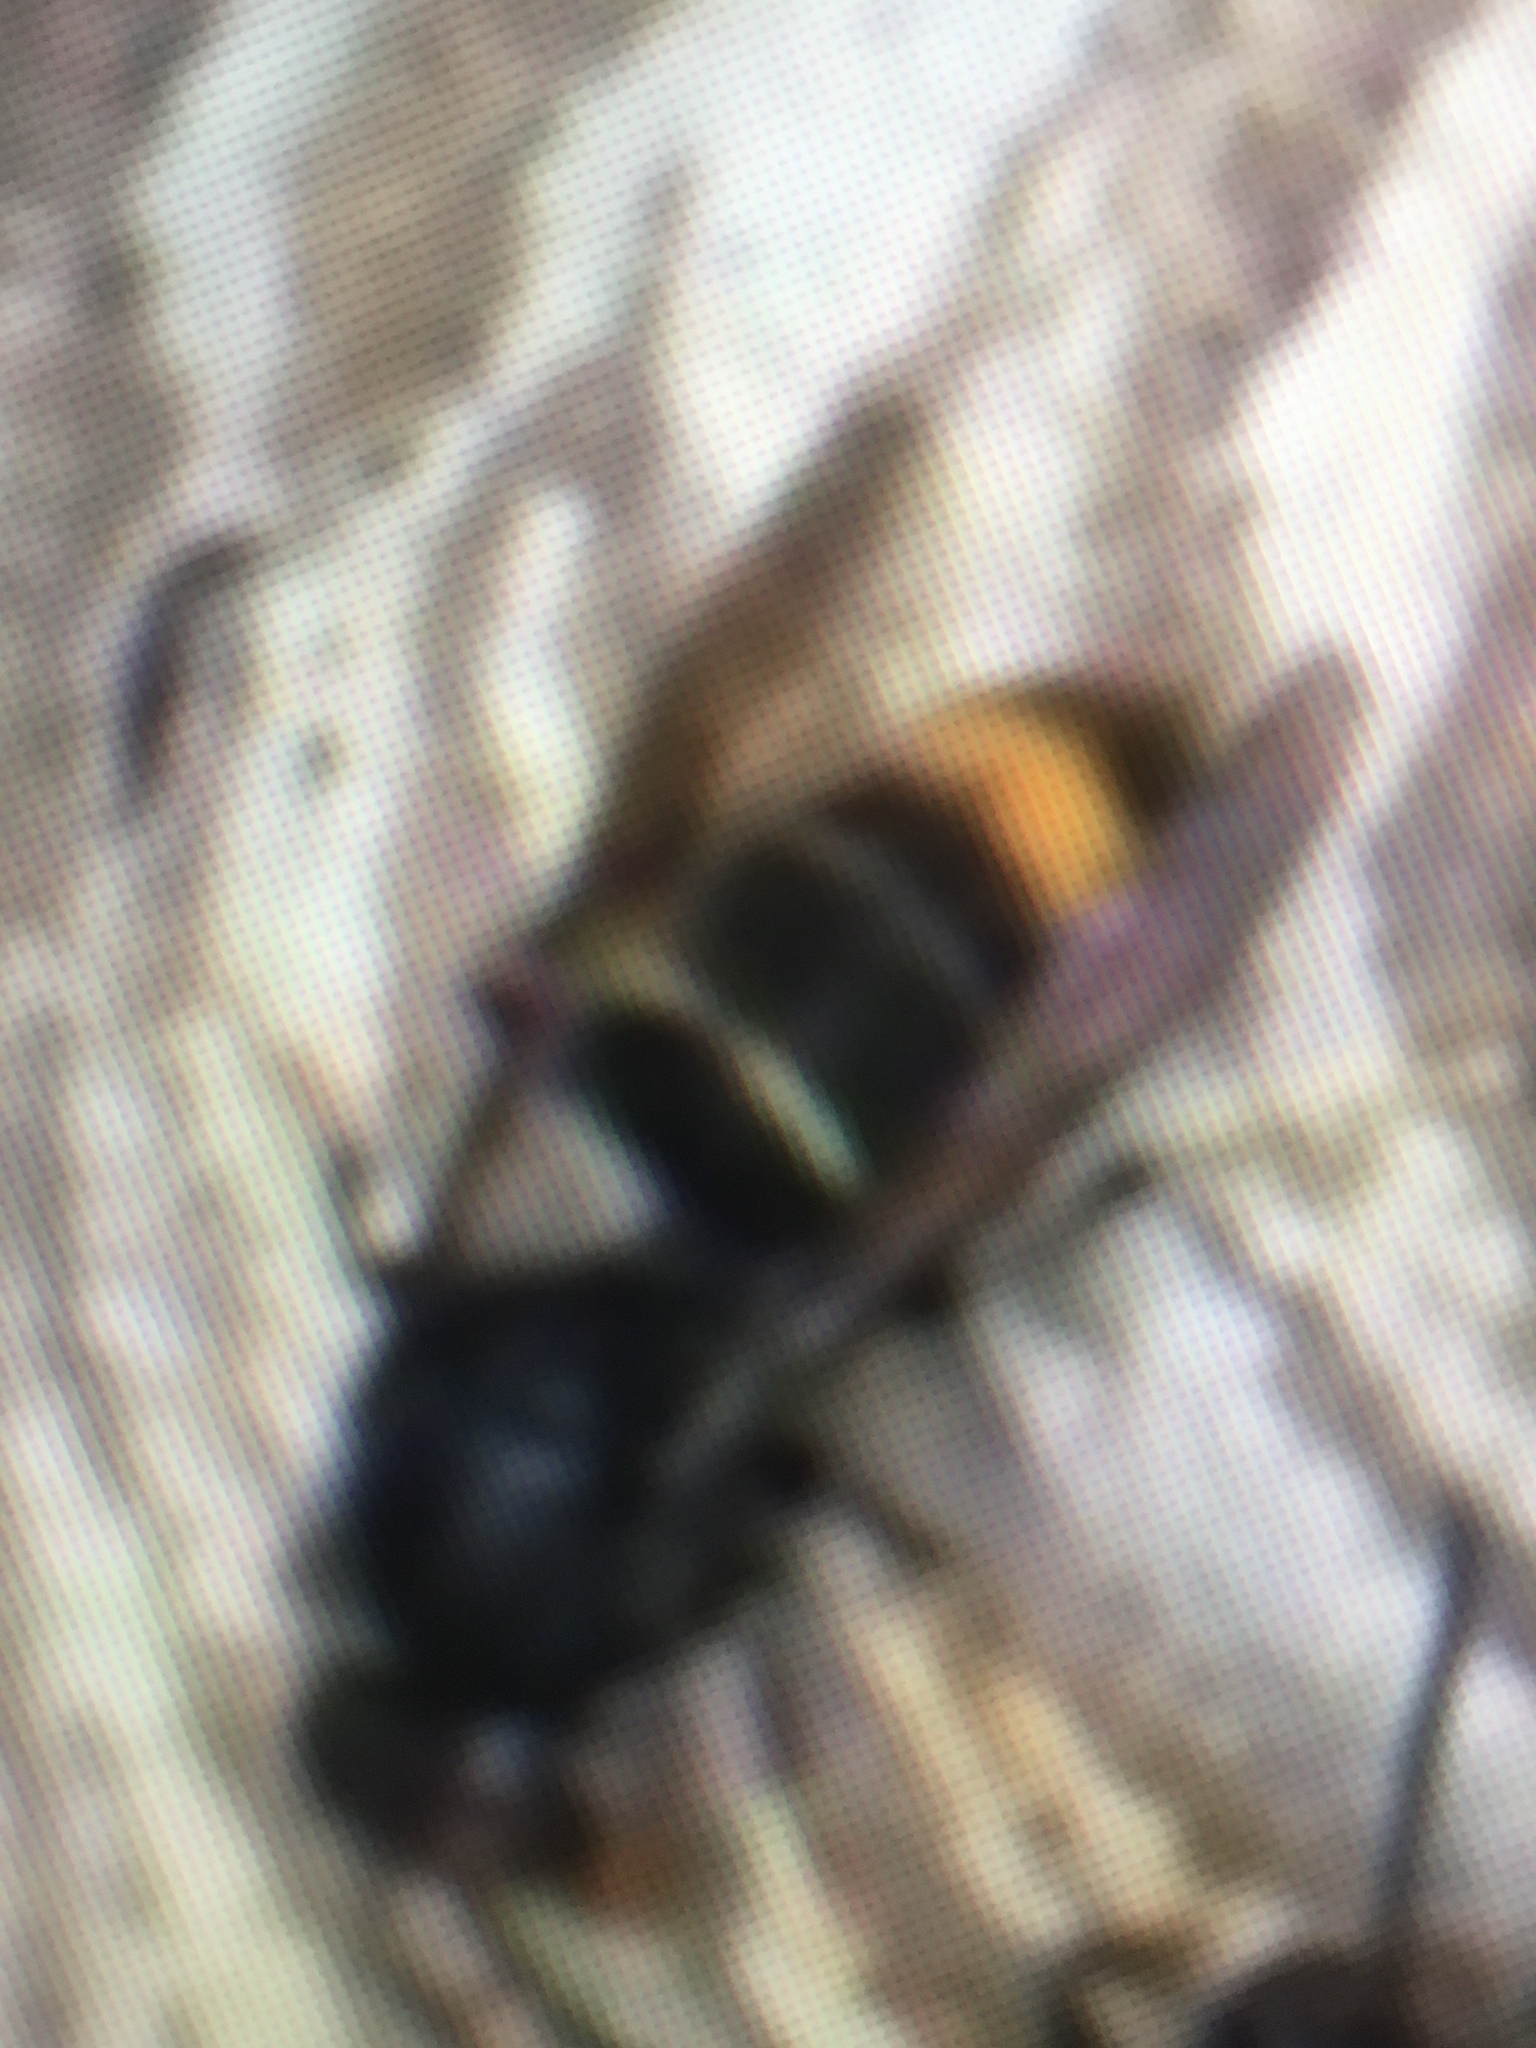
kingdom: Animalia
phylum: Arthropoda
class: Insecta
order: Hymenoptera
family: Vespidae
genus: Vespa
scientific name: Vespa velutina
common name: Asian hornet
